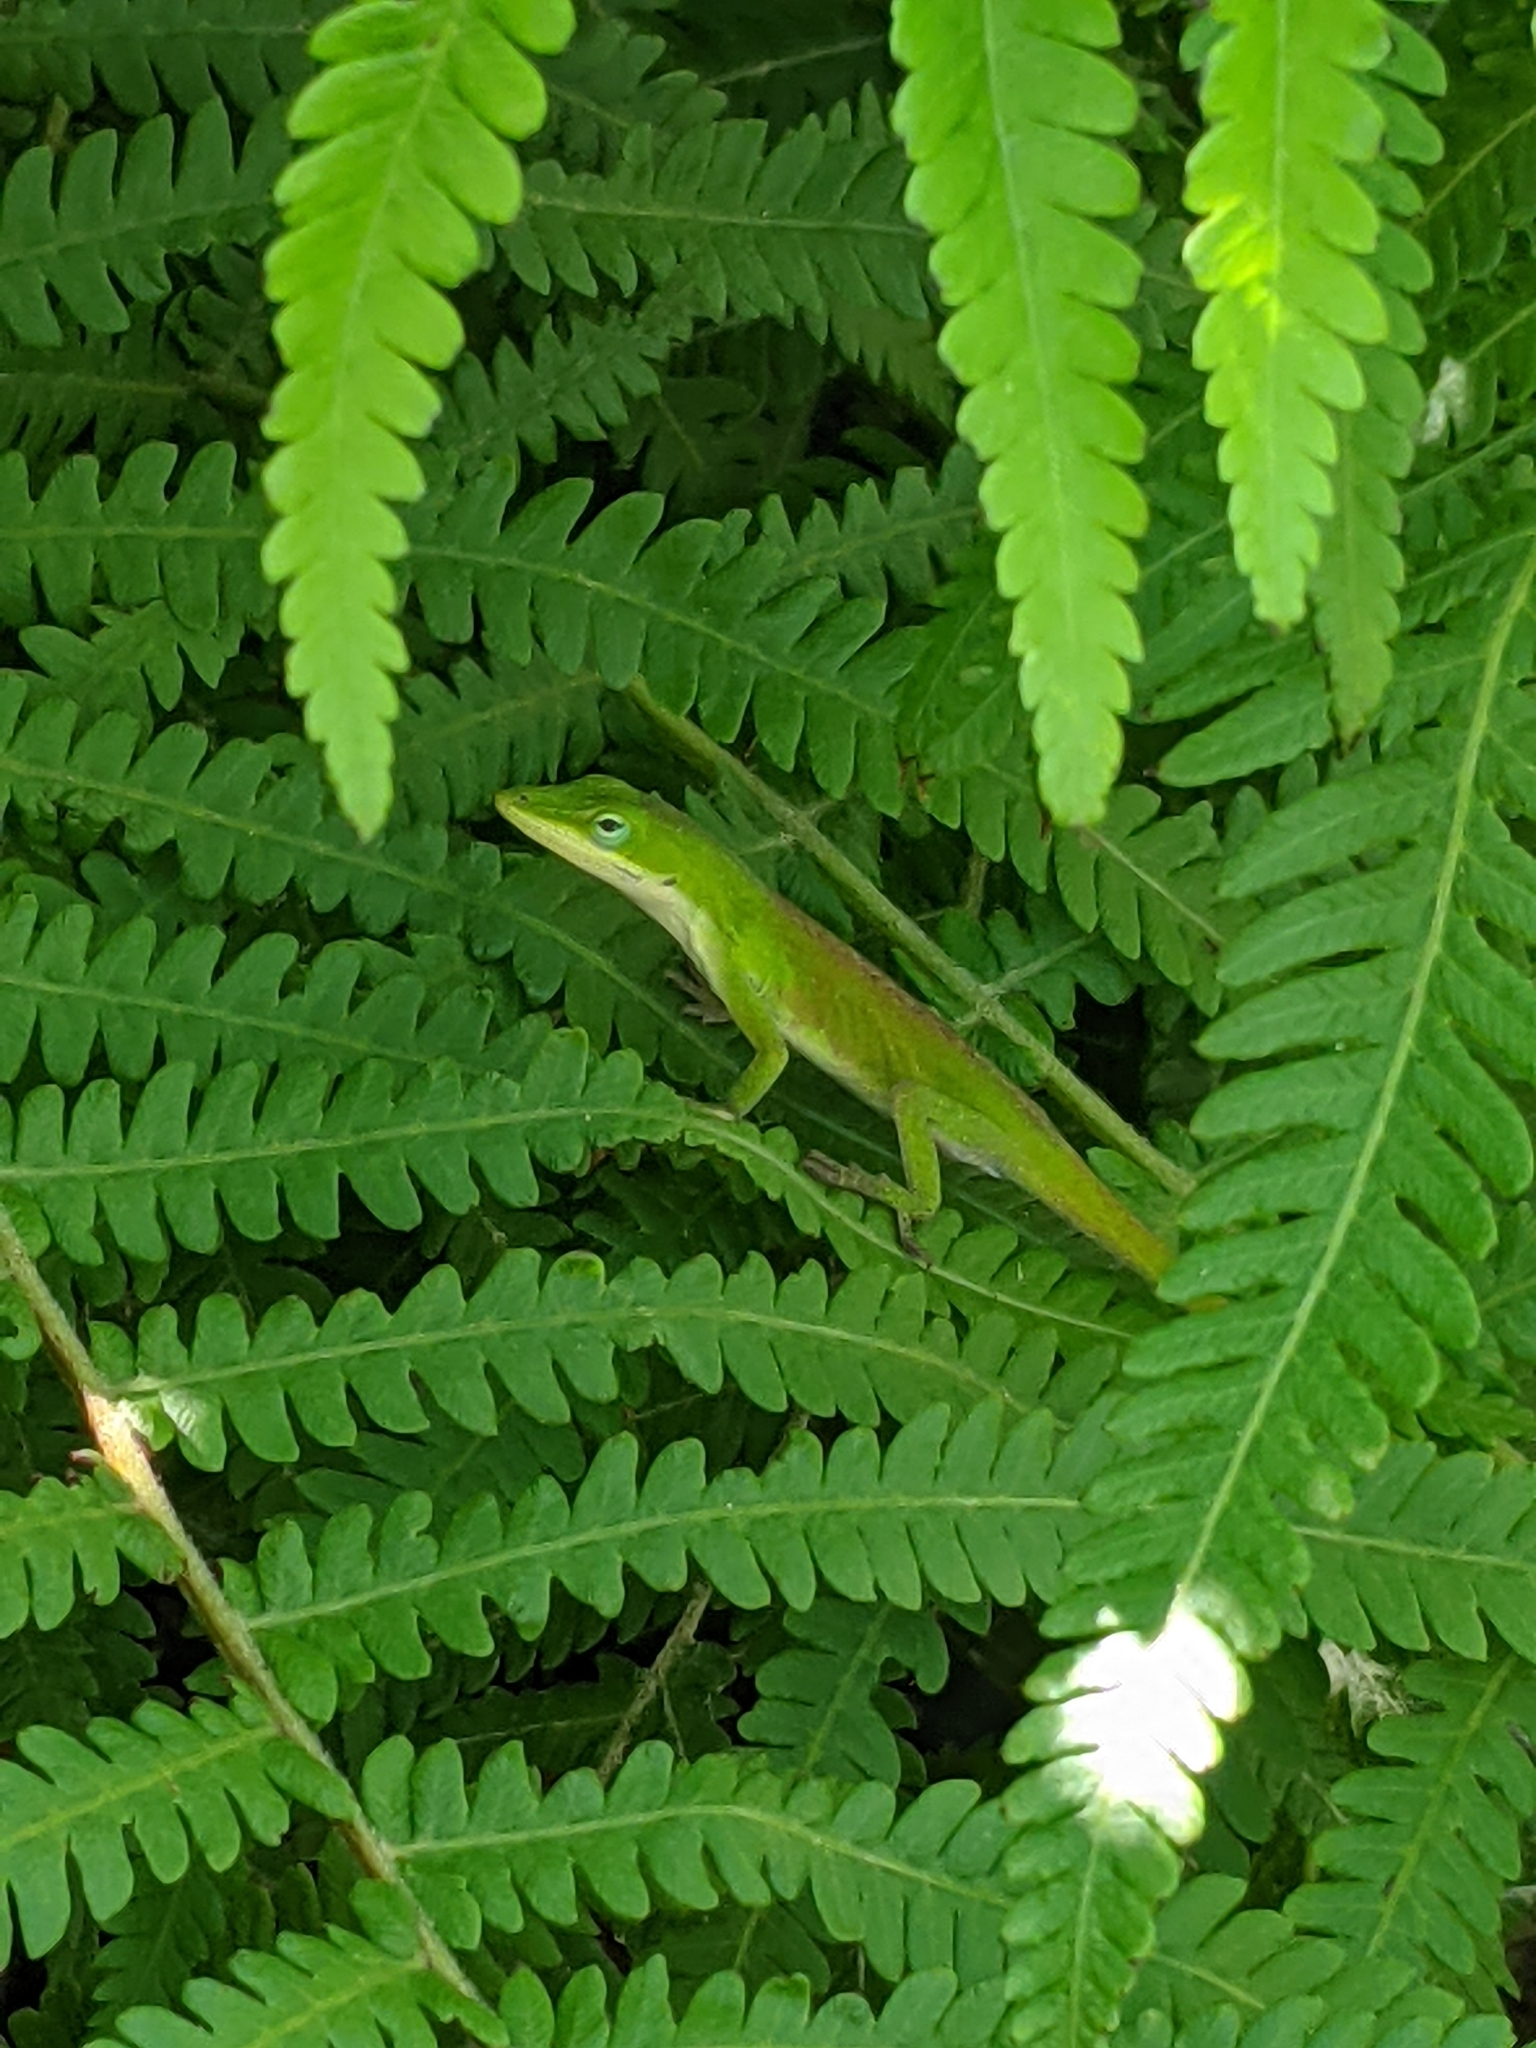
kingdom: Animalia
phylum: Chordata
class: Squamata
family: Dactyloidae
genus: Anolis
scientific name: Anolis carolinensis
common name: Green anole
